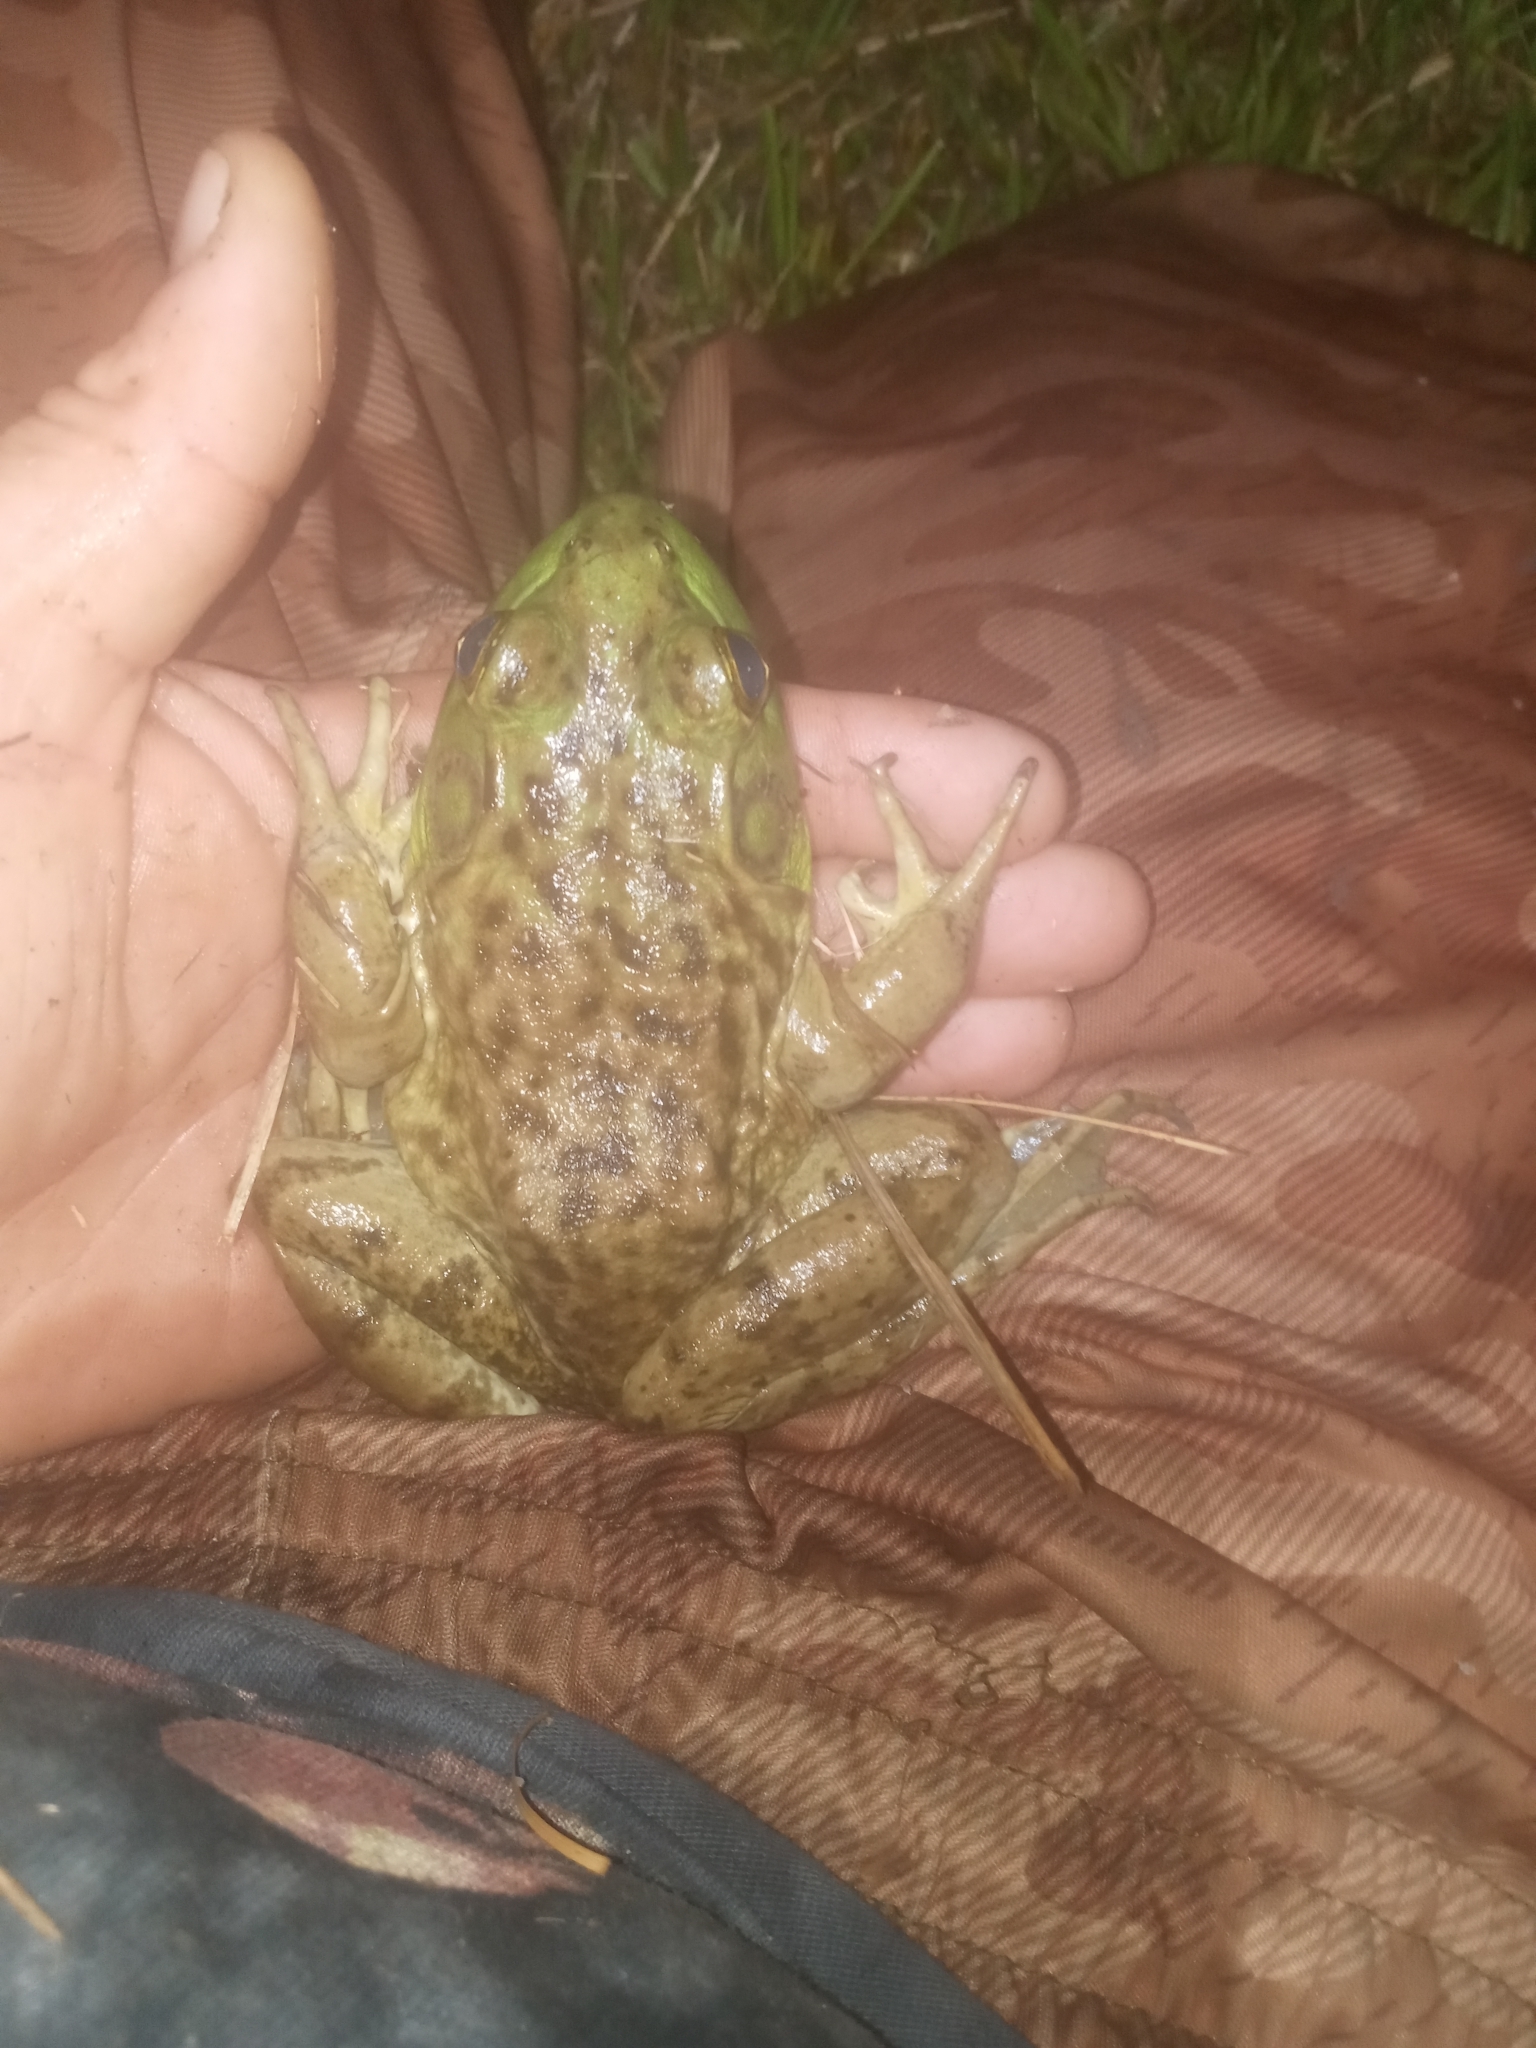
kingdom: Animalia
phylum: Chordata
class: Amphibia
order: Anura
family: Ranidae
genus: Lithobates
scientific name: Lithobates catesbeianus
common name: American bullfrog
